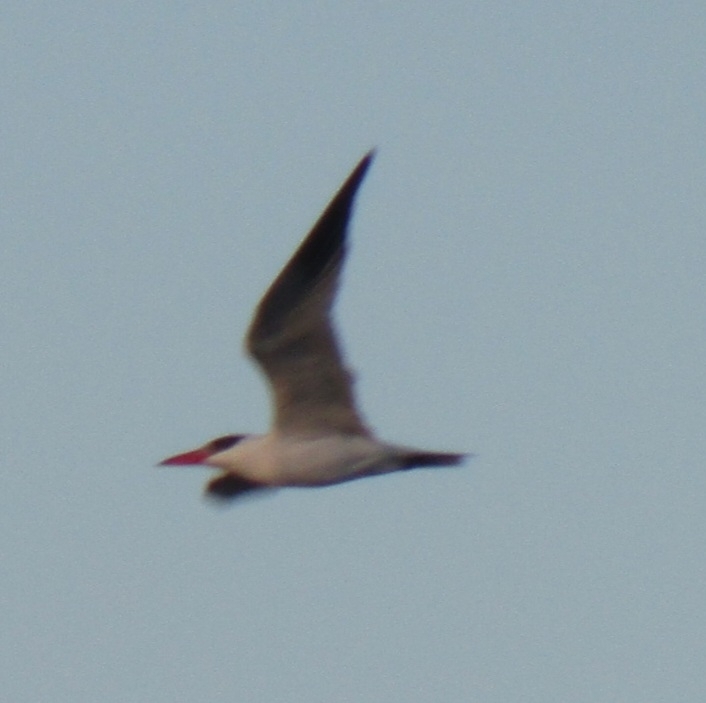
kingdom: Animalia
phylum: Chordata
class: Aves
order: Charadriiformes
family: Laridae
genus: Hydroprogne
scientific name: Hydroprogne caspia
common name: Caspian tern
